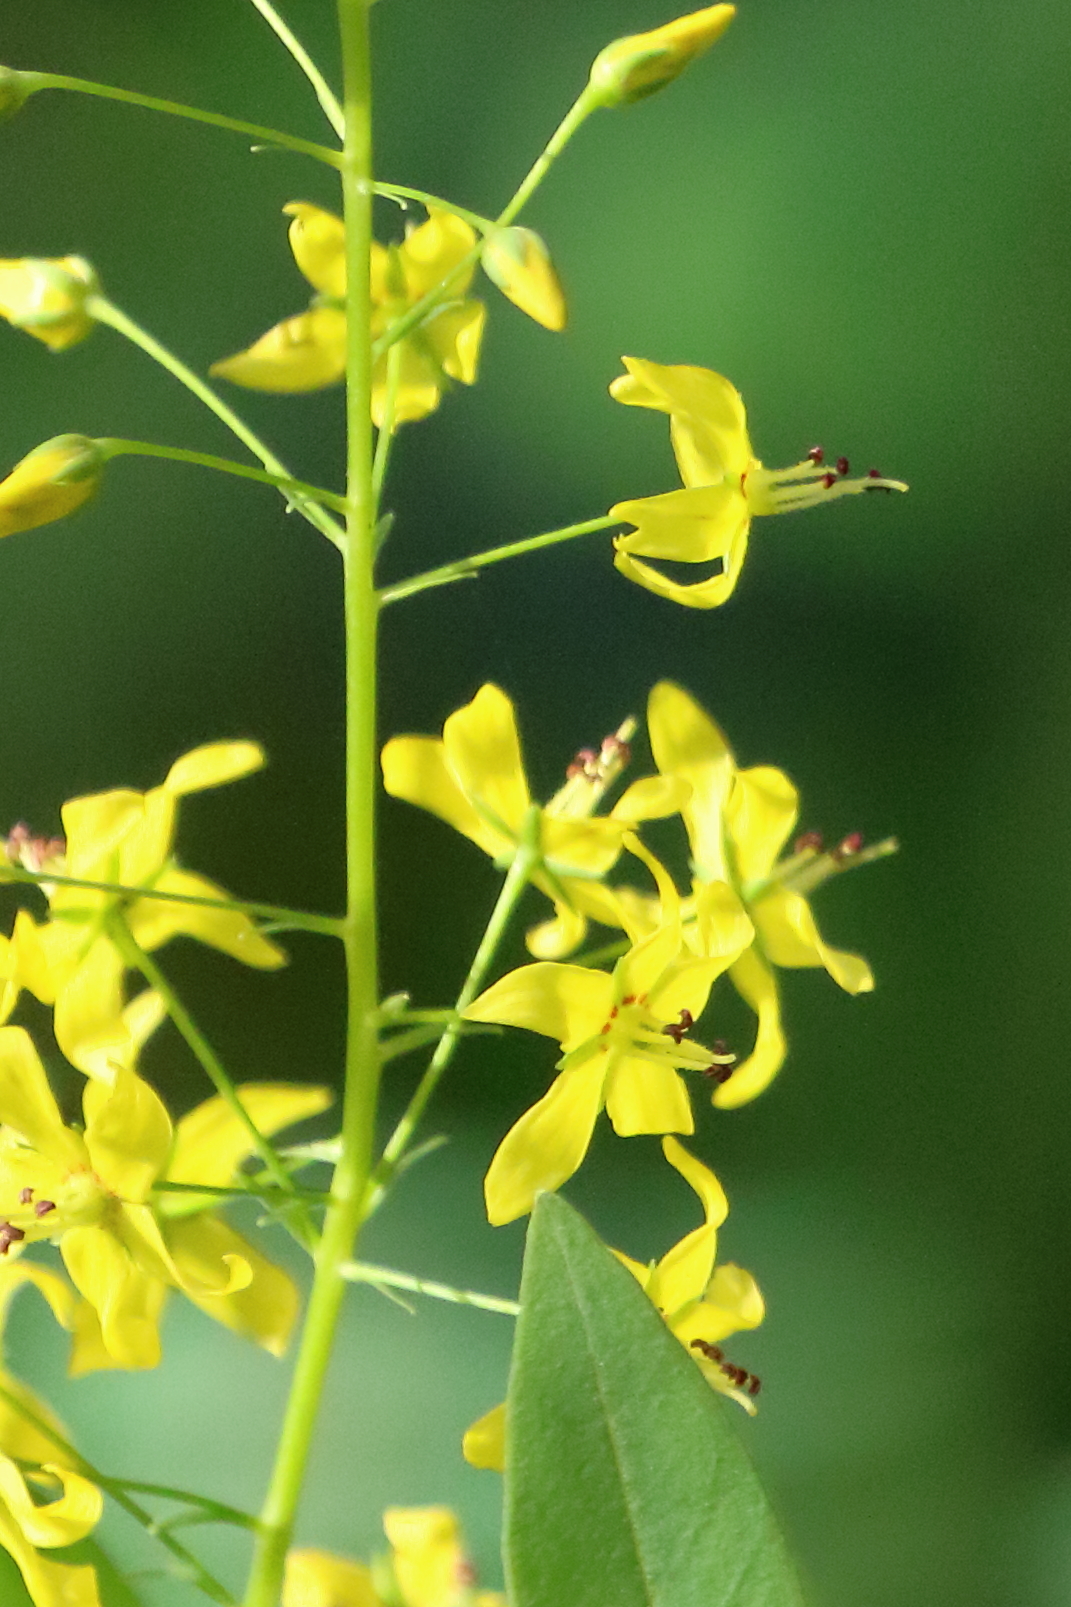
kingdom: Plantae
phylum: Tracheophyta
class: Magnoliopsida
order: Ericales
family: Primulaceae
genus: Lysimachia
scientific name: Lysimachia terrestris
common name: Lake loosestrife
